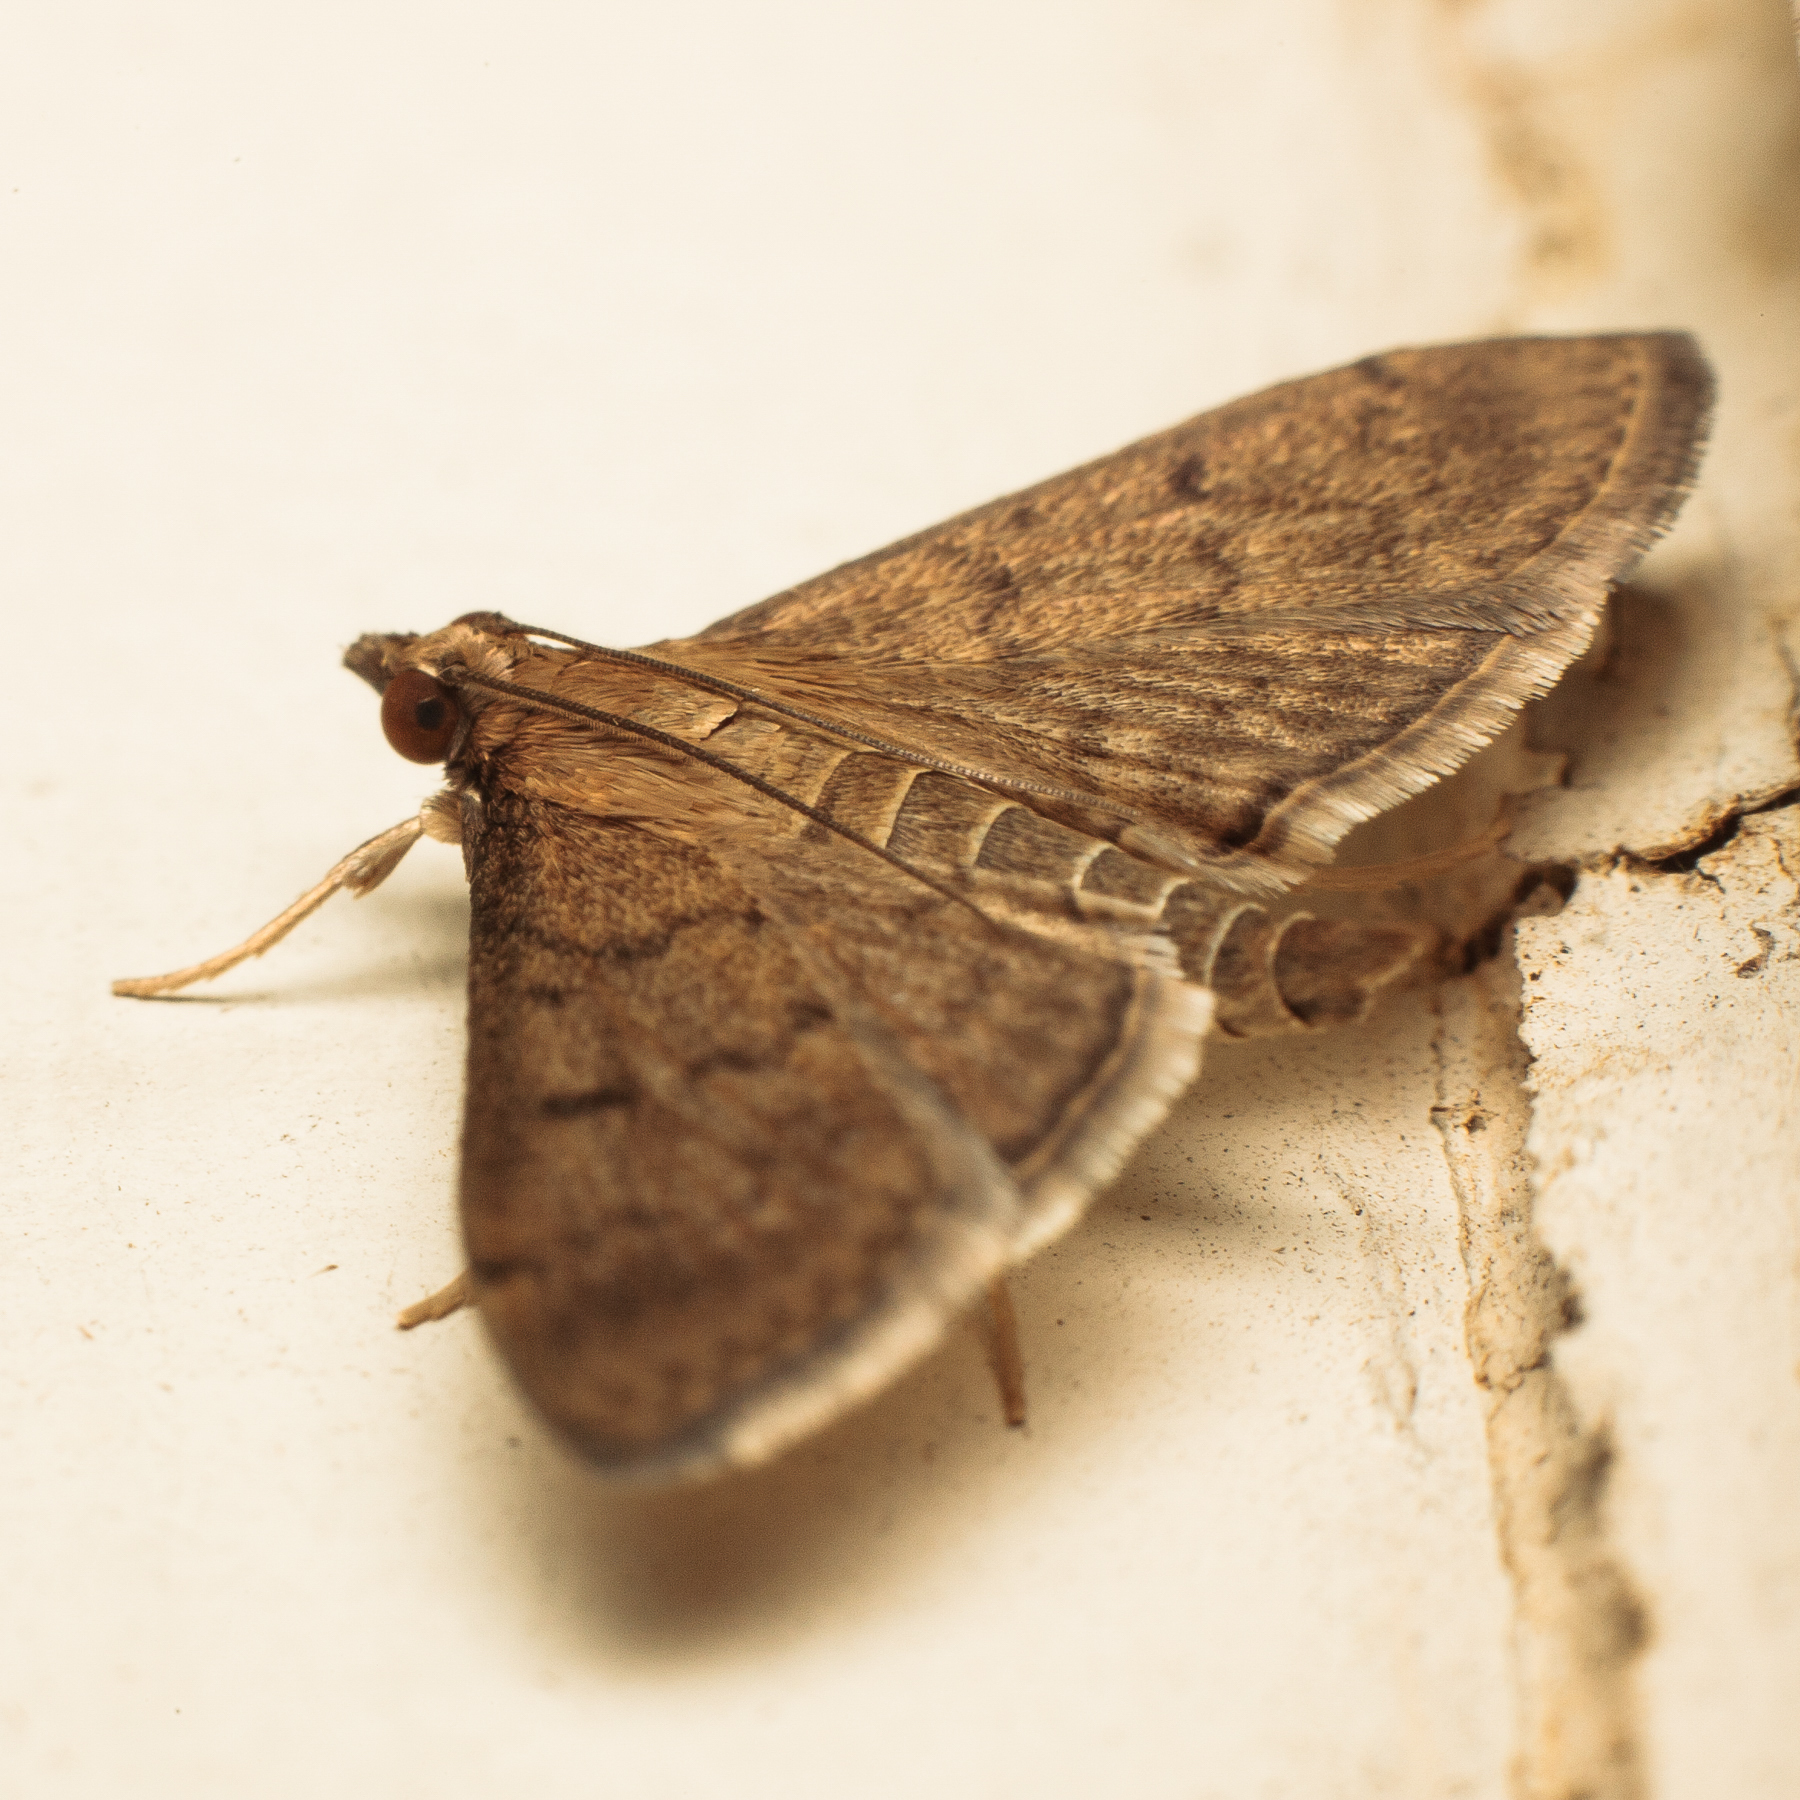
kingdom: Animalia
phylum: Arthropoda
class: Insecta
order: Lepidoptera
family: Crambidae
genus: Herpetogramma
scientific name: Herpetogramma phaeopteralis
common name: Dusky herpetogramma moth
